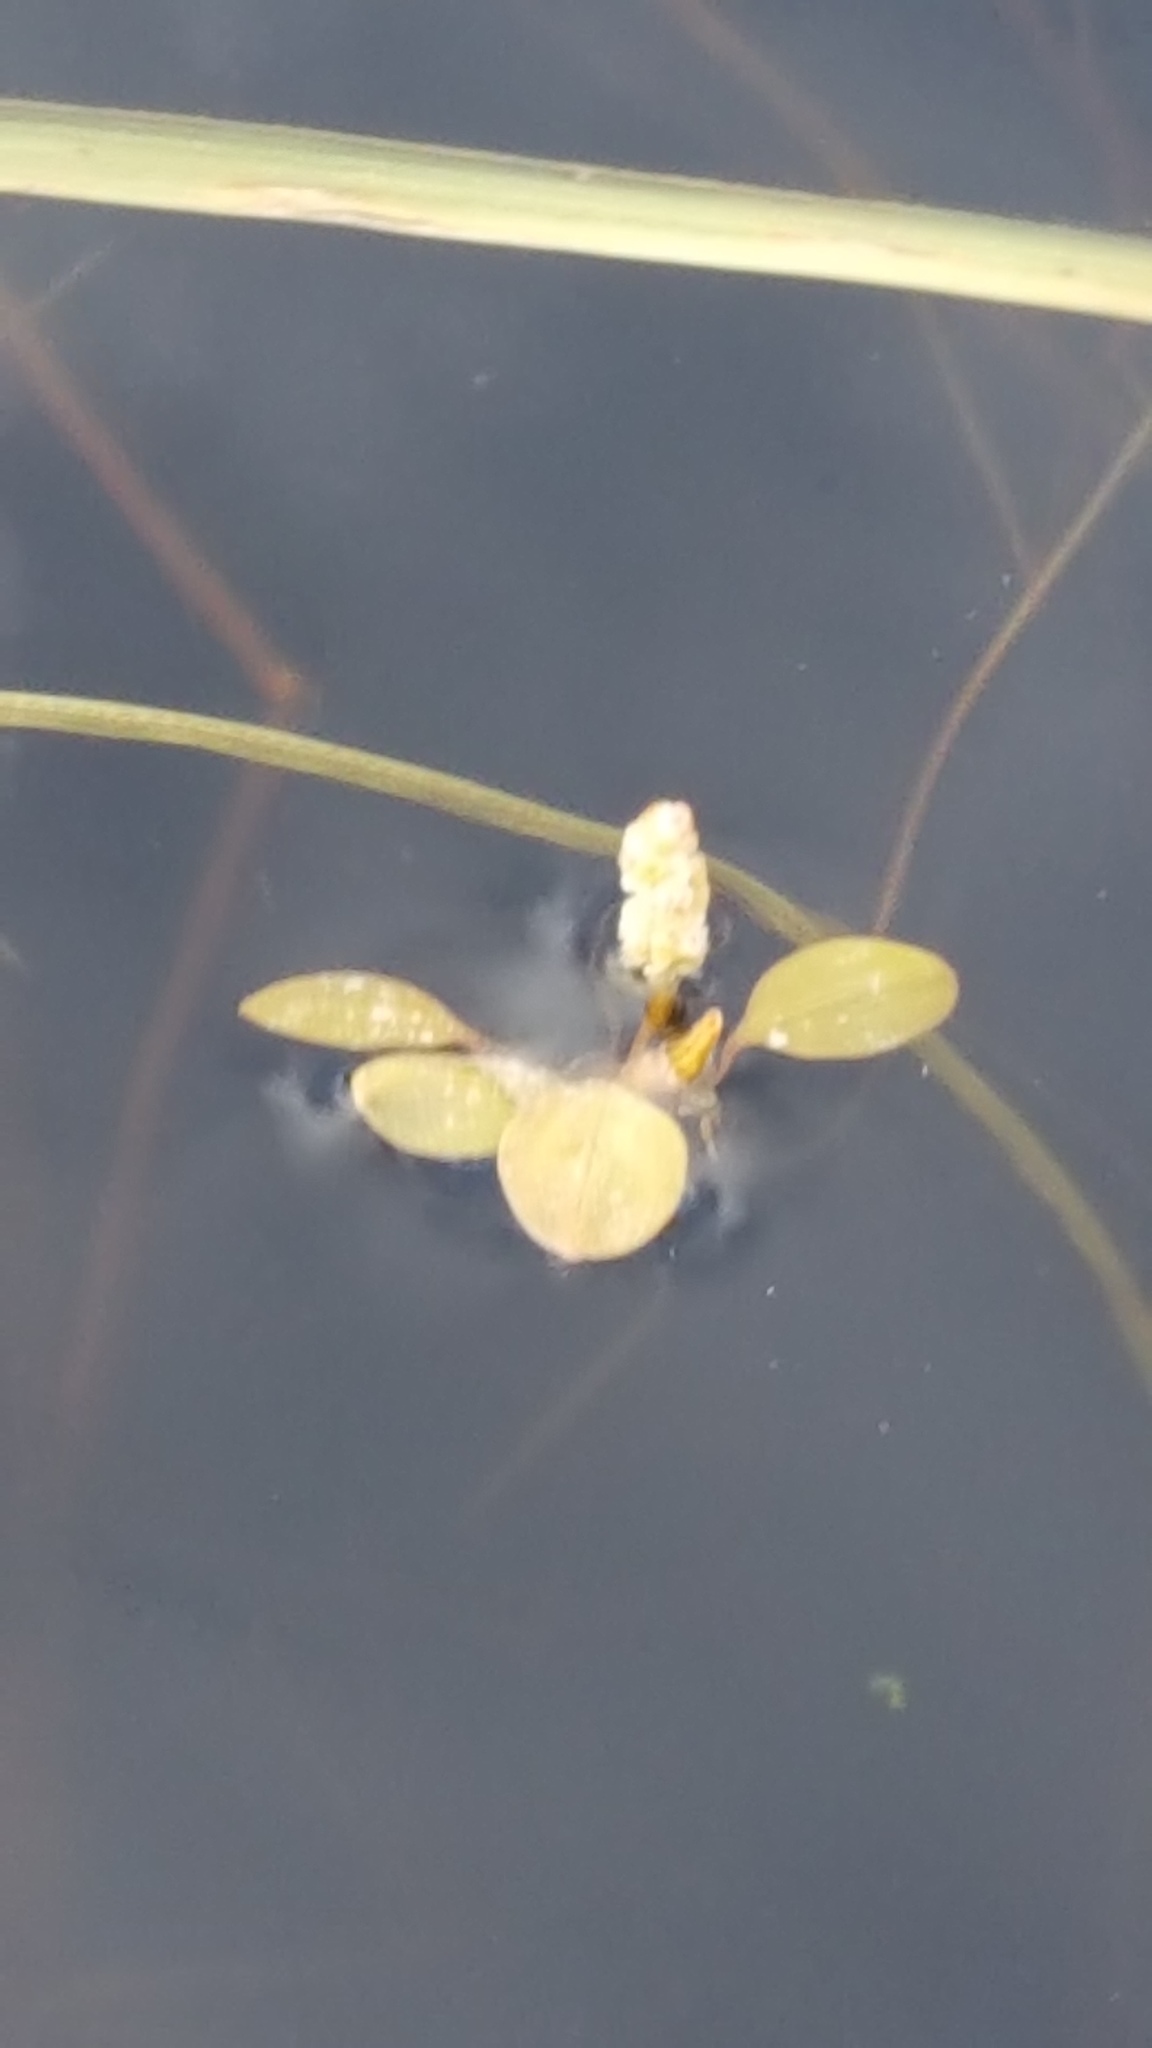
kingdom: Plantae
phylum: Tracheophyta
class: Liliopsida
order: Alismatales
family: Potamogetonaceae
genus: Potamogeton
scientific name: Potamogeton vaseyi
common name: Vasey's pondweed
